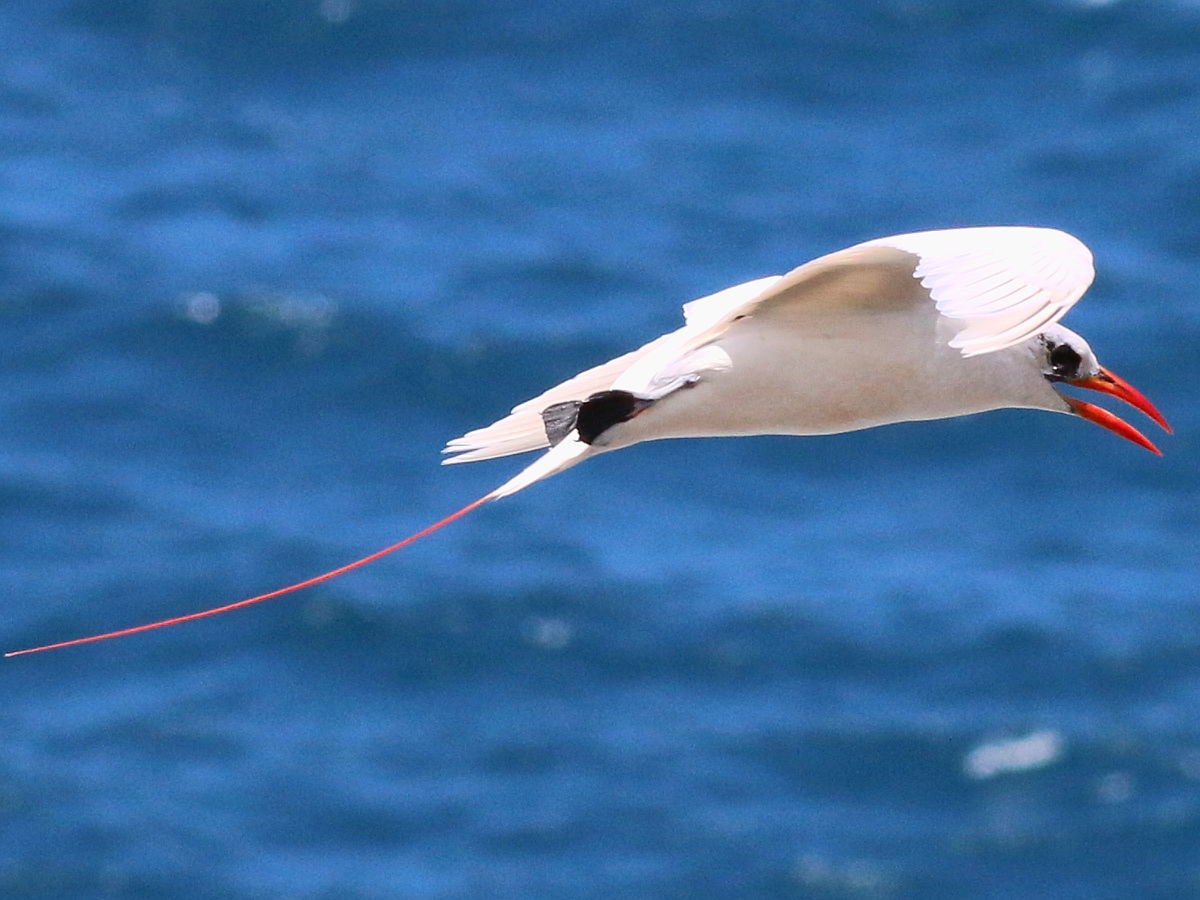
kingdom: Animalia
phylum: Chordata
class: Aves
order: Phaethontiformes
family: Phaethontidae
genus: Phaethon
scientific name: Phaethon rubricauda
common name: Red-tailed tropicbird
